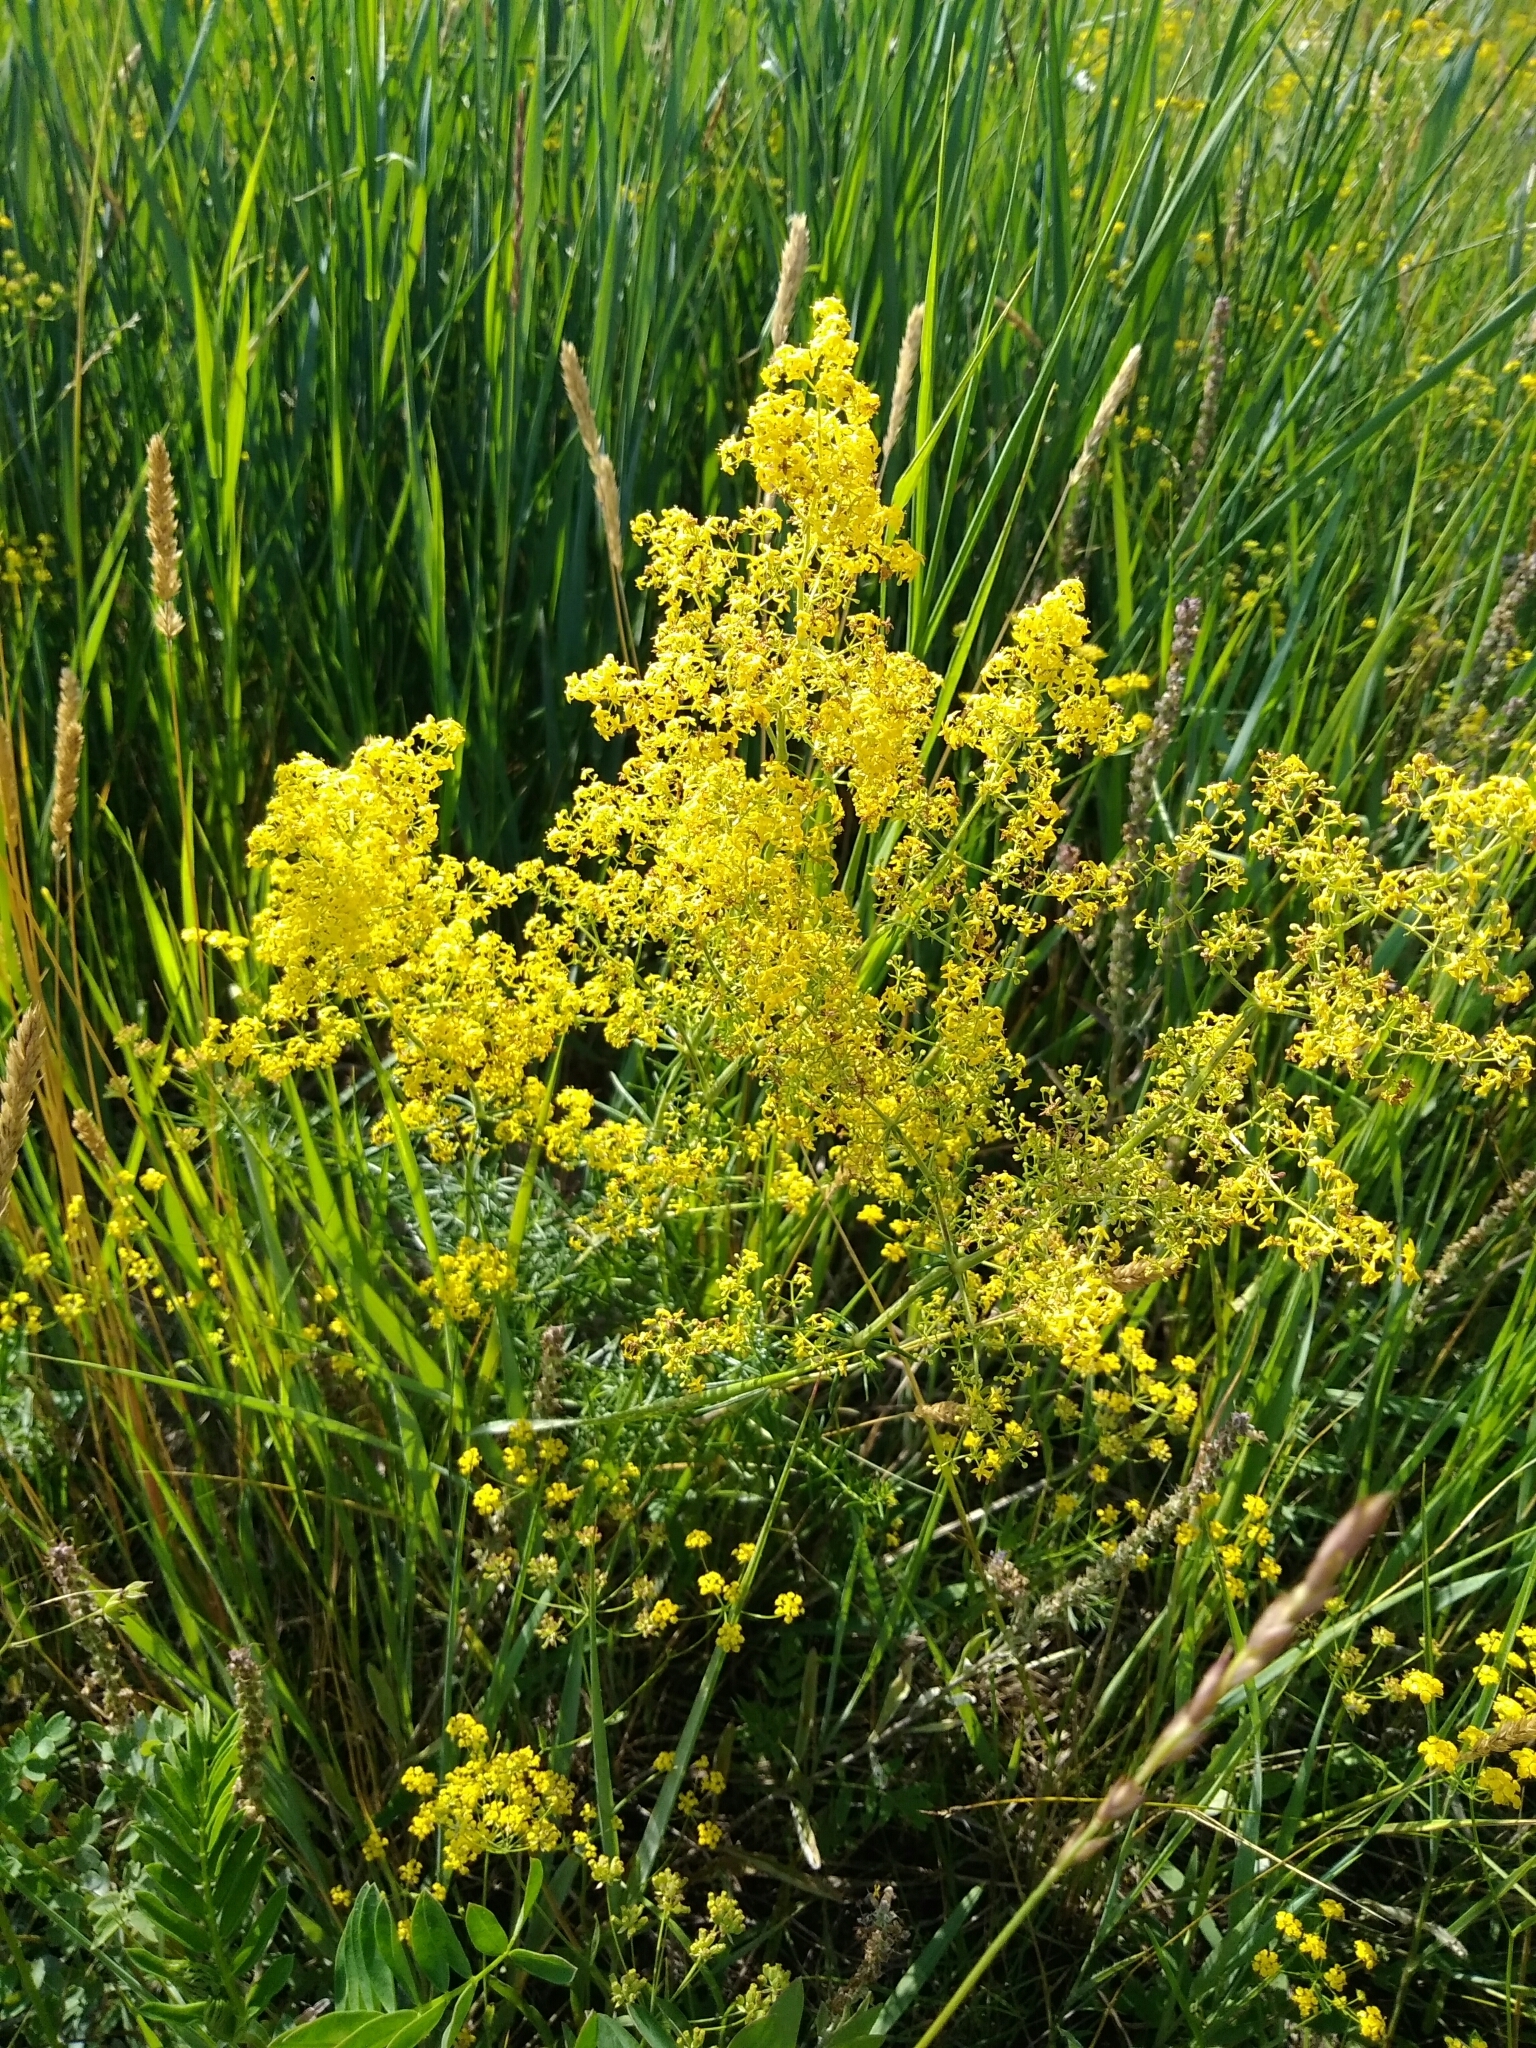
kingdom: Plantae
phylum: Tracheophyta
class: Magnoliopsida
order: Gentianales
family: Rubiaceae
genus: Galium
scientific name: Galium verum
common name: Lady's bedstraw
